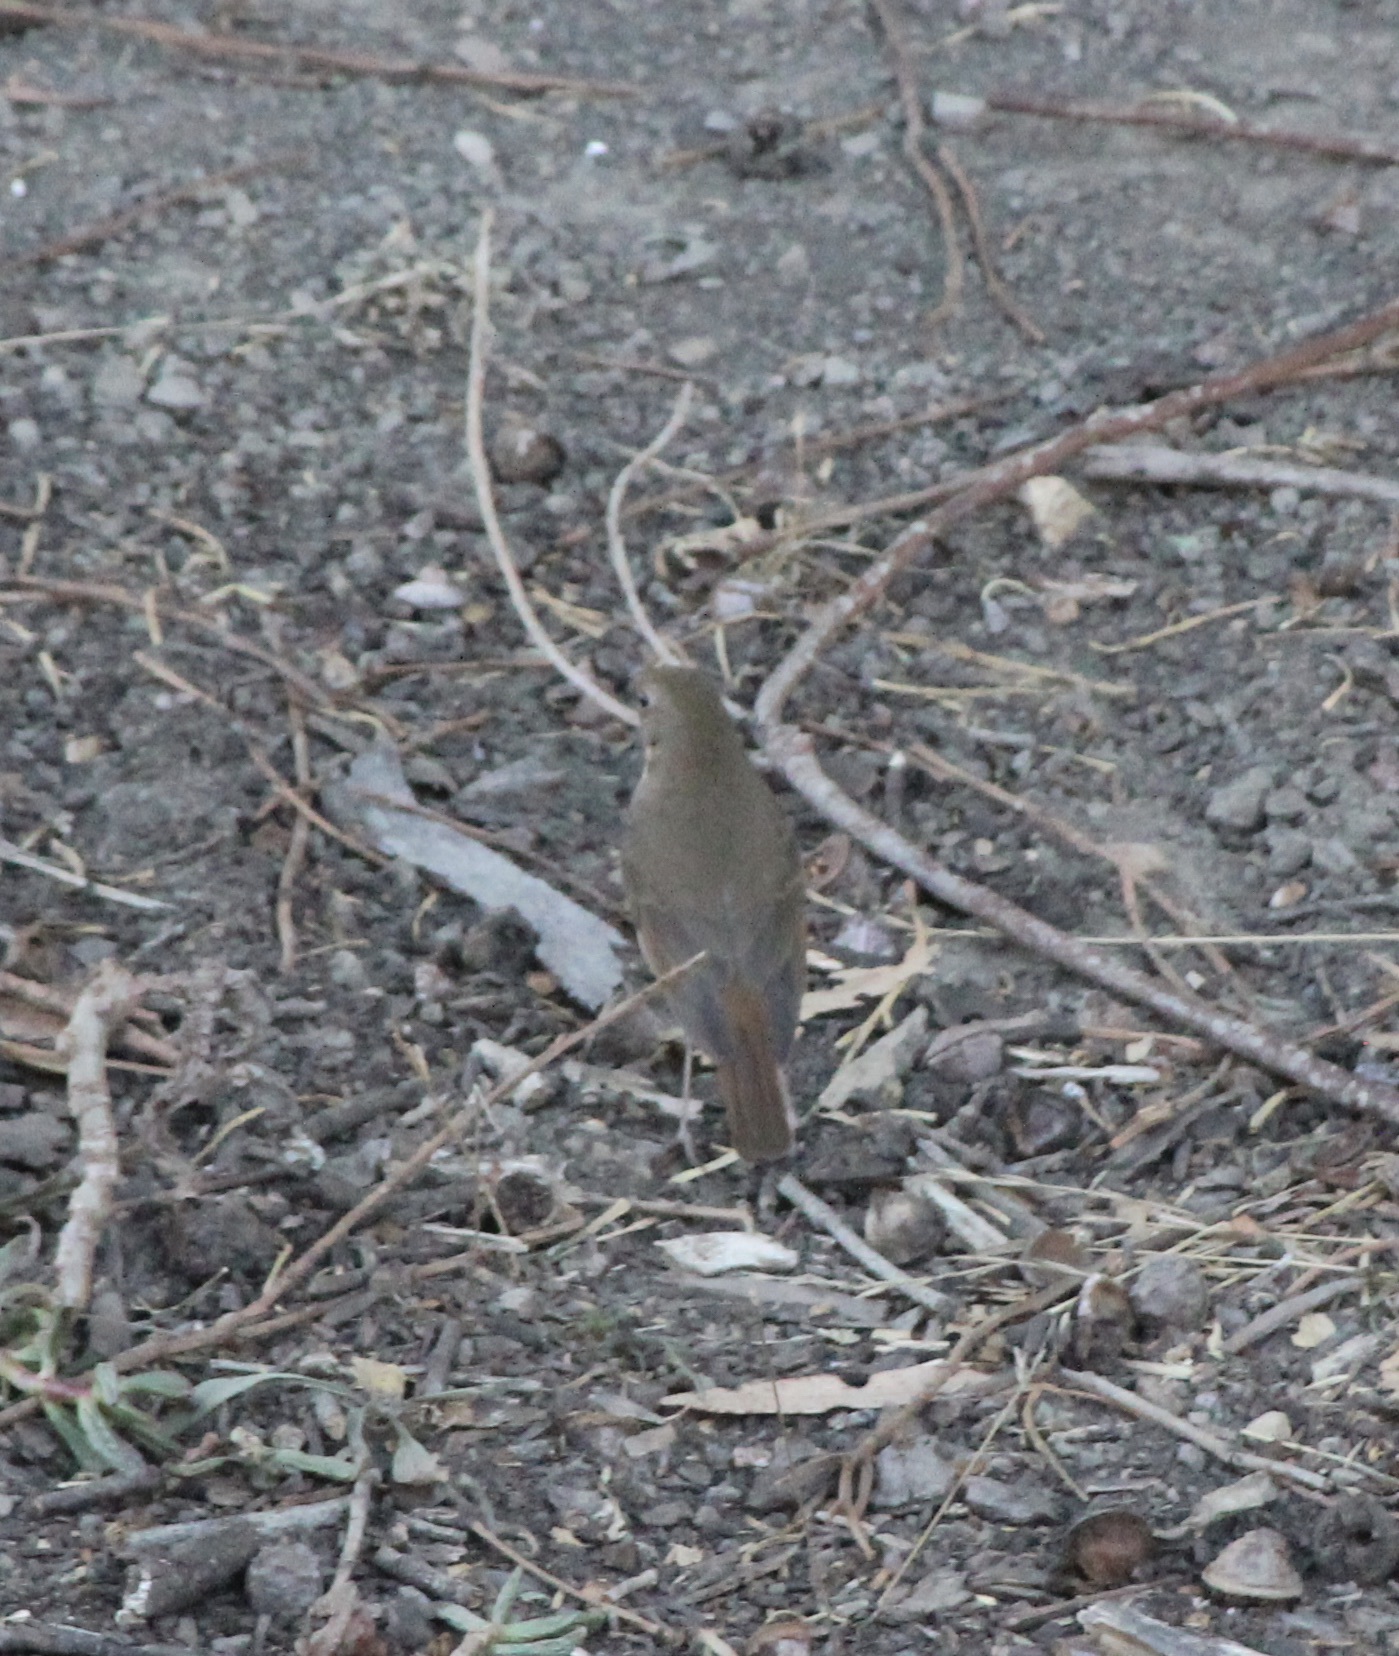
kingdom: Animalia
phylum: Chordata
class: Aves
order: Passeriformes
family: Turdidae
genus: Catharus
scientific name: Catharus guttatus
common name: Hermit thrush
